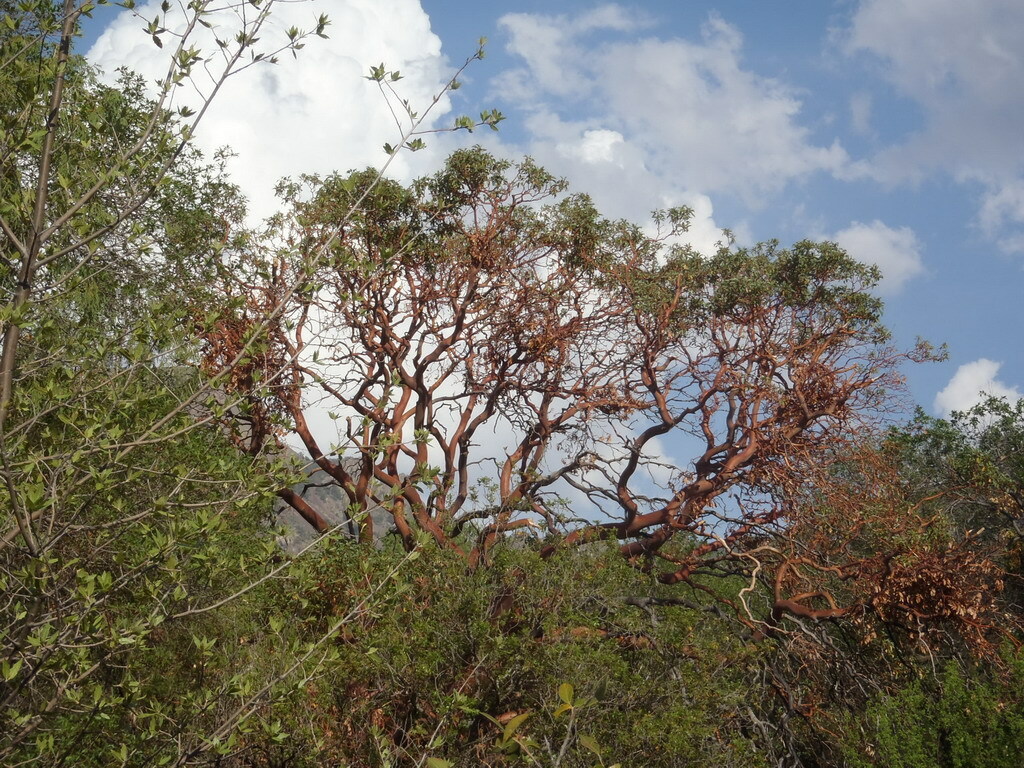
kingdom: Plantae
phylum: Tracheophyta
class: Magnoliopsida
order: Ericales
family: Ericaceae
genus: Arbutus
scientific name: Arbutus xalapensis
